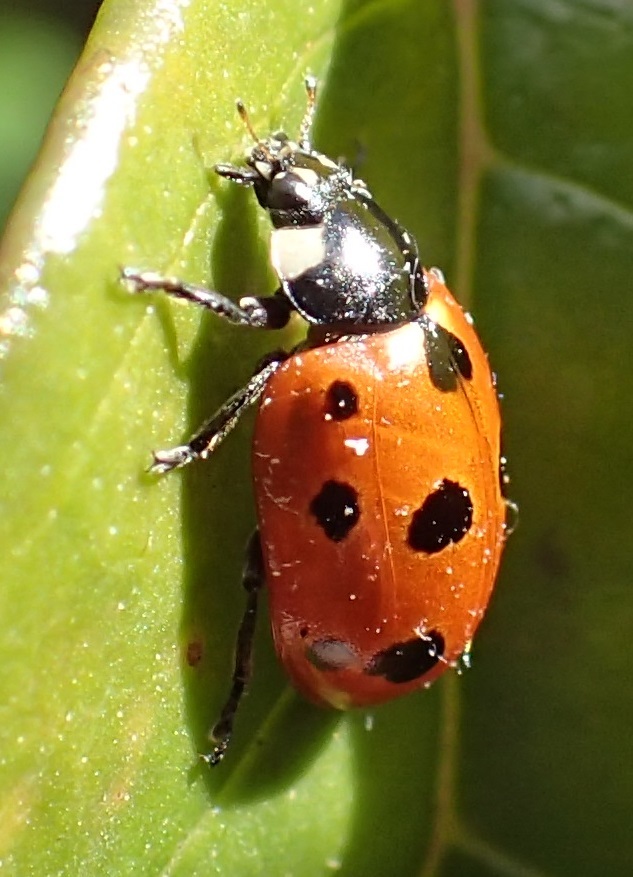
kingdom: Animalia
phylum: Arthropoda
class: Insecta
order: Coleoptera
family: Coccinellidae
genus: Coccinella
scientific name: Coccinella undecimpunctata
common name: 11-spot ladybird
